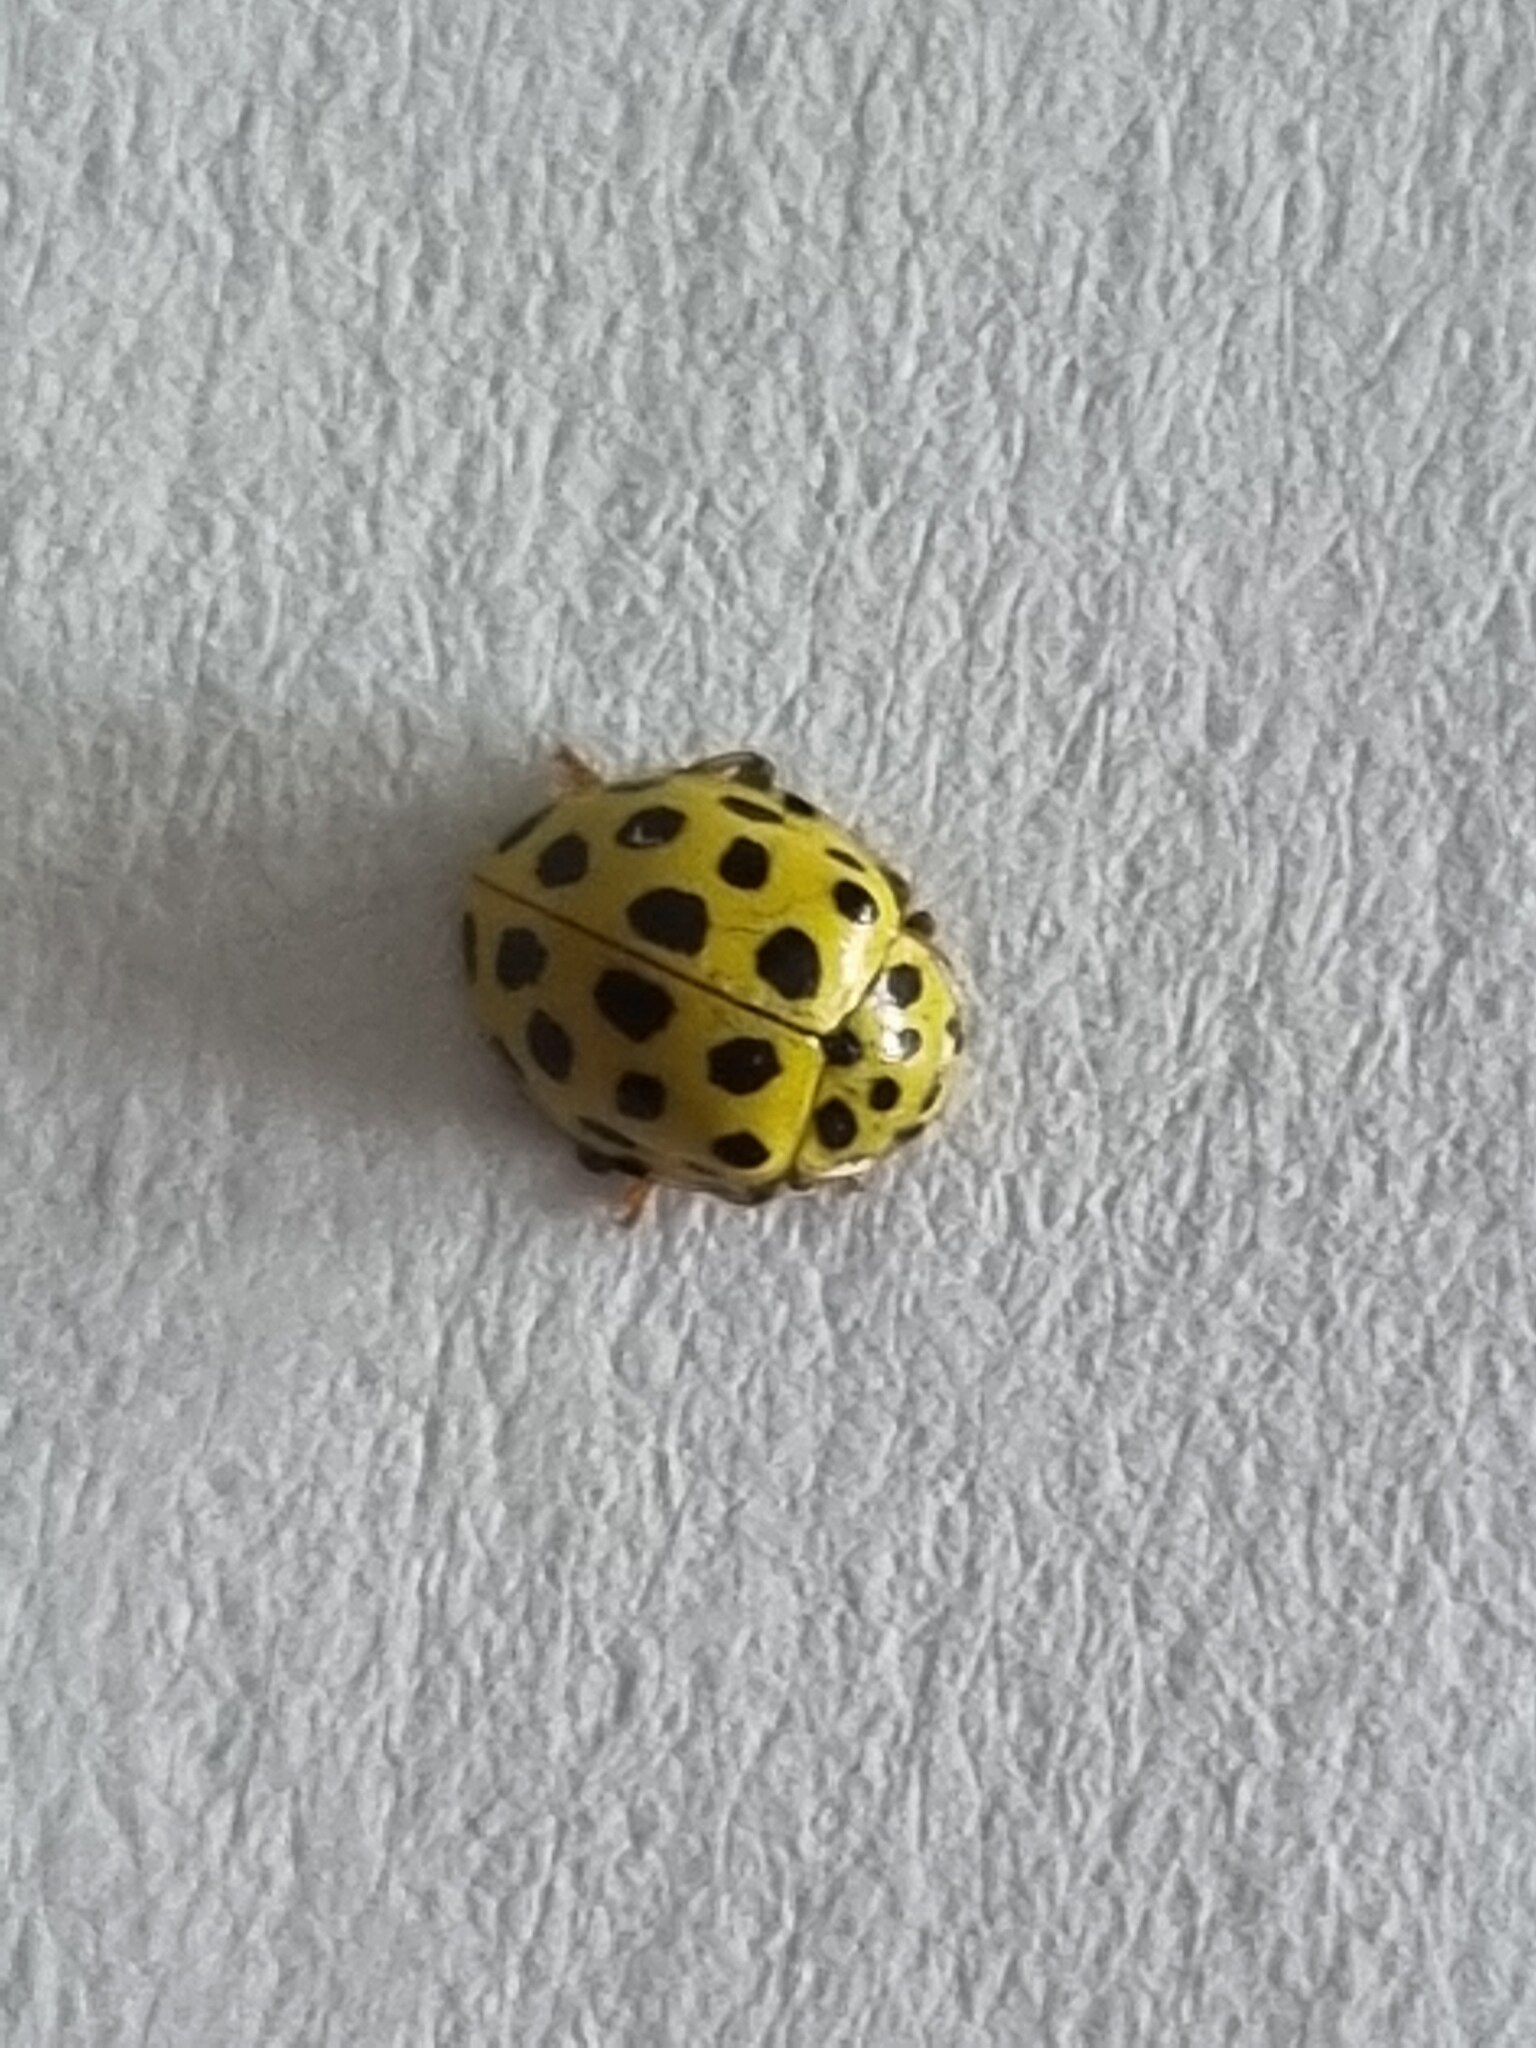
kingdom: Animalia
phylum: Arthropoda
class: Insecta
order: Coleoptera
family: Coccinellidae
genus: Psyllobora
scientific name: Psyllobora vigintiduopunctata
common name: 22-spot ladybird
